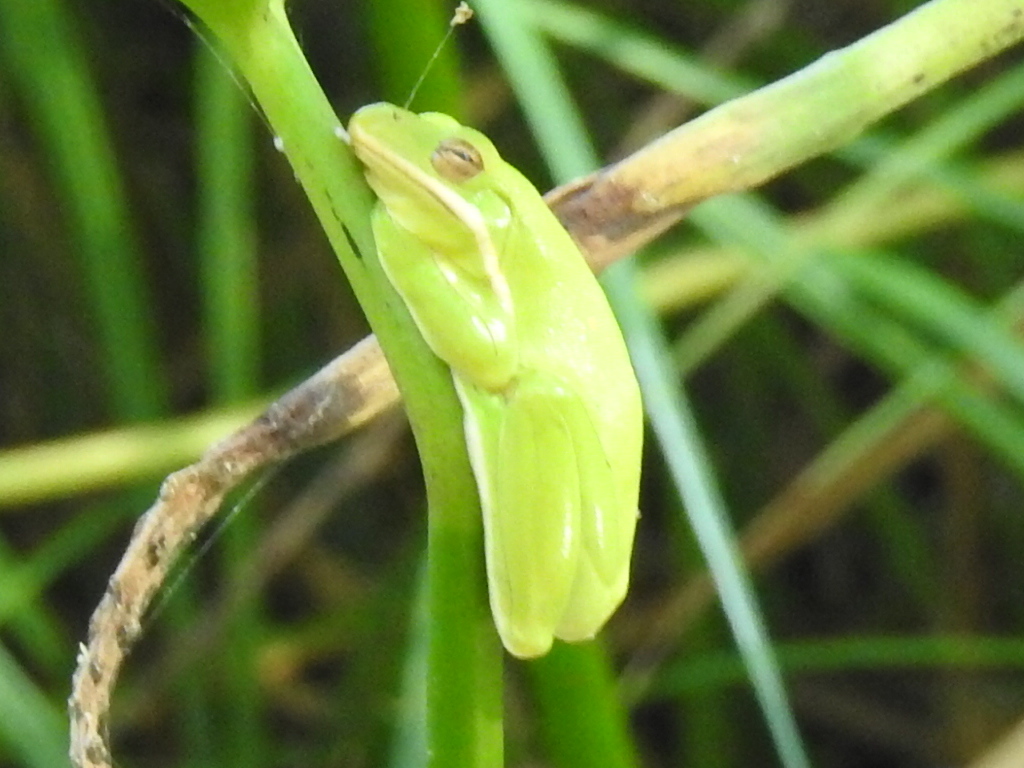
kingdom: Animalia
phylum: Chordata
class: Amphibia
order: Anura
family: Hylidae
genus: Dryophytes
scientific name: Dryophytes cinereus
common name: Green treefrog
